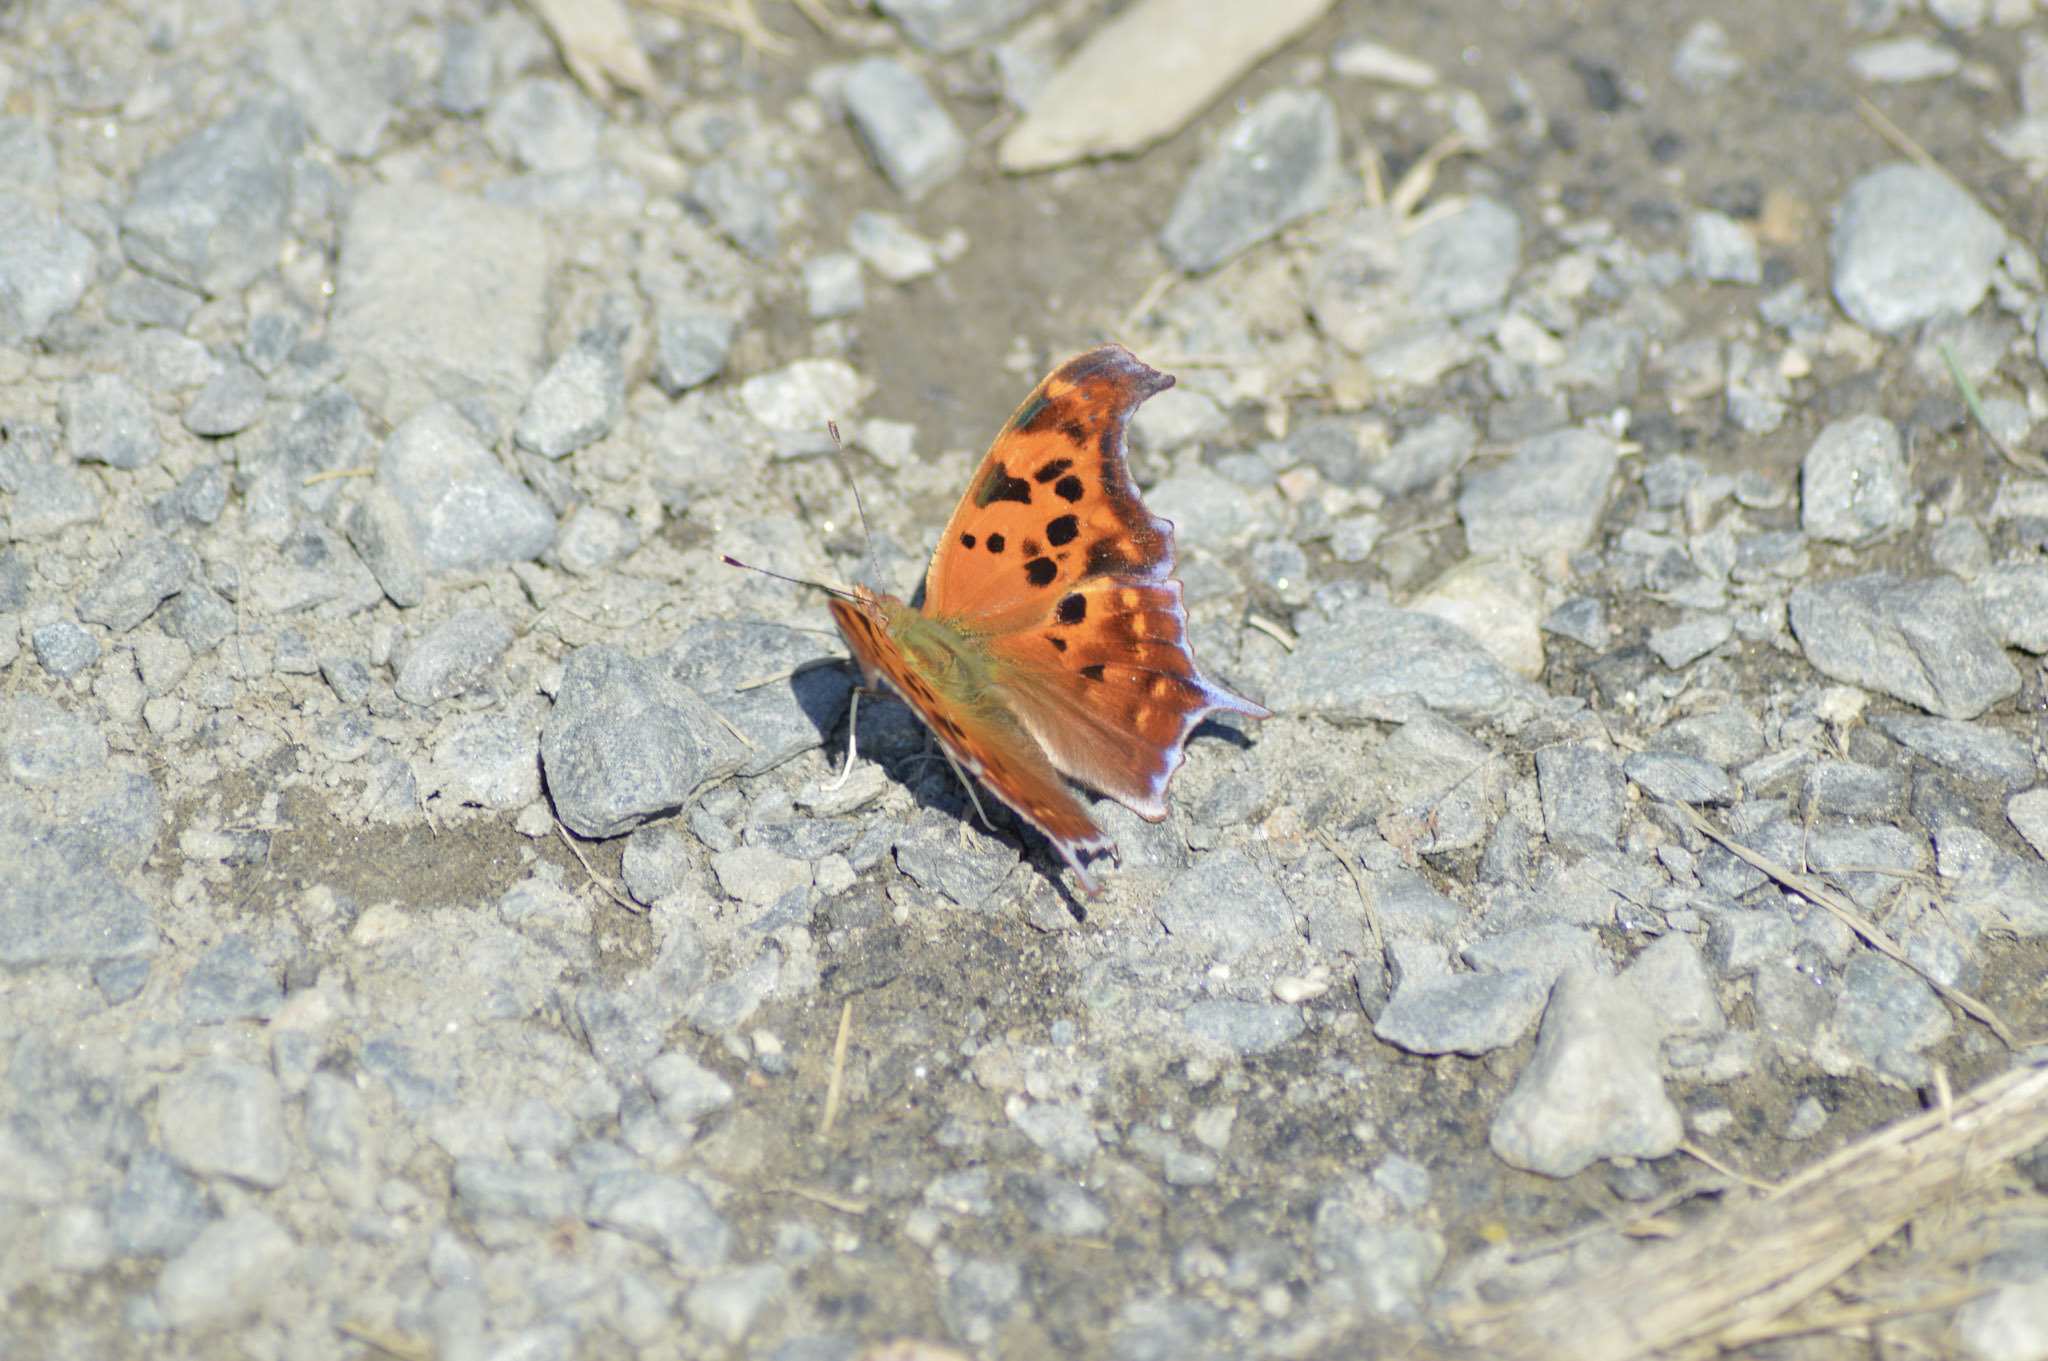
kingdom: Animalia
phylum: Arthropoda
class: Insecta
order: Lepidoptera
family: Nymphalidae
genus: Polygonia
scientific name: Polygonia interrogationis
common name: Question mark
